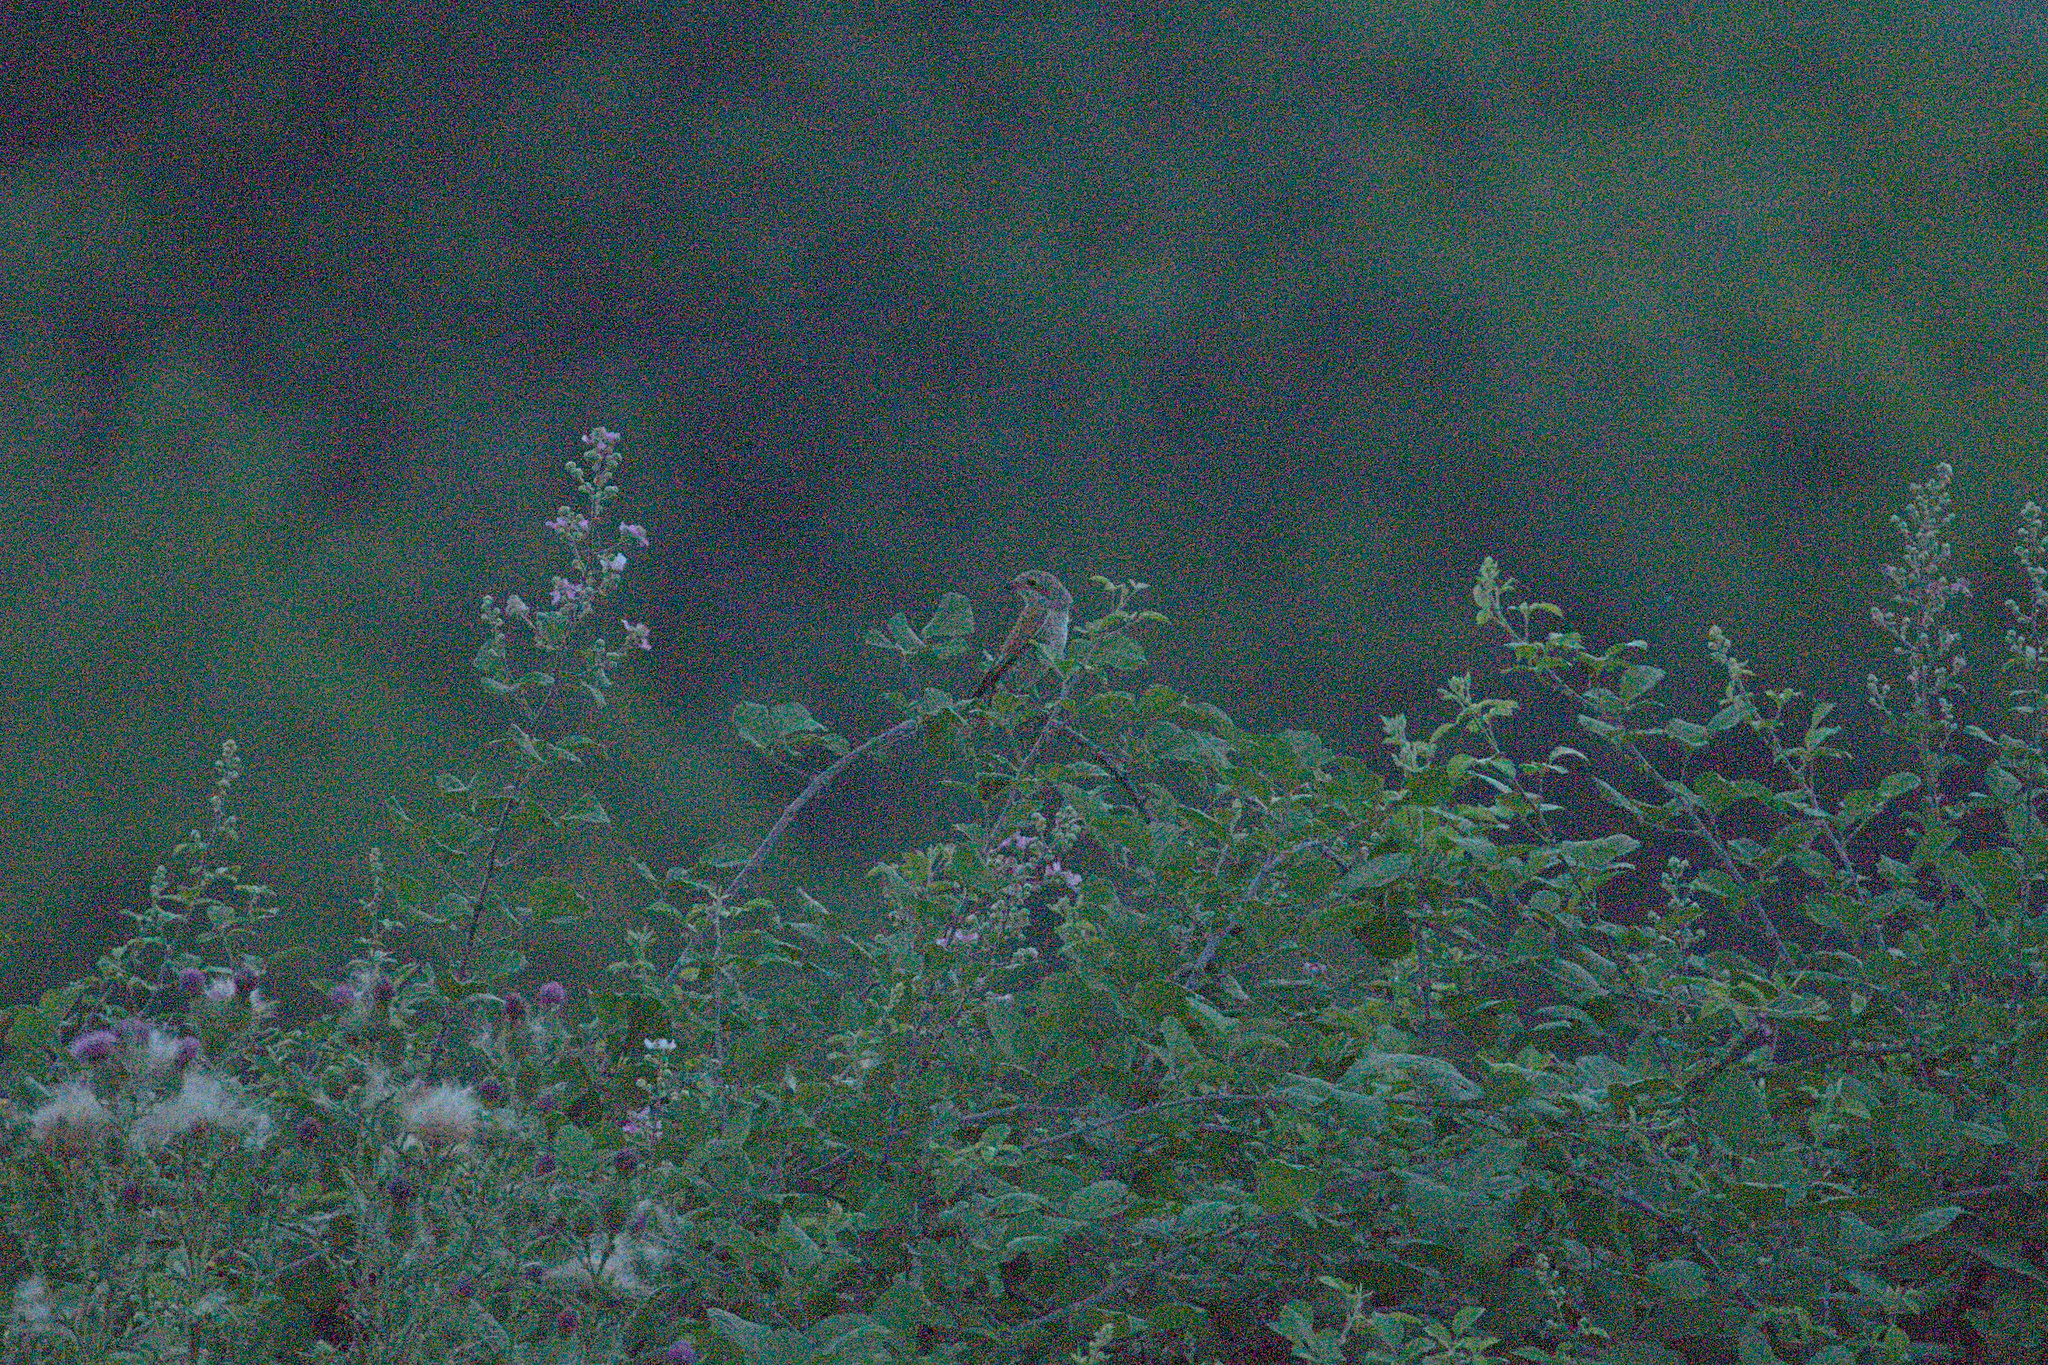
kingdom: Animalia
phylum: Chordata
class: Aves
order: Passeriformes
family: Laniidae
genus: Lanius
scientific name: Lanius collurio
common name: Red-backed shrike
